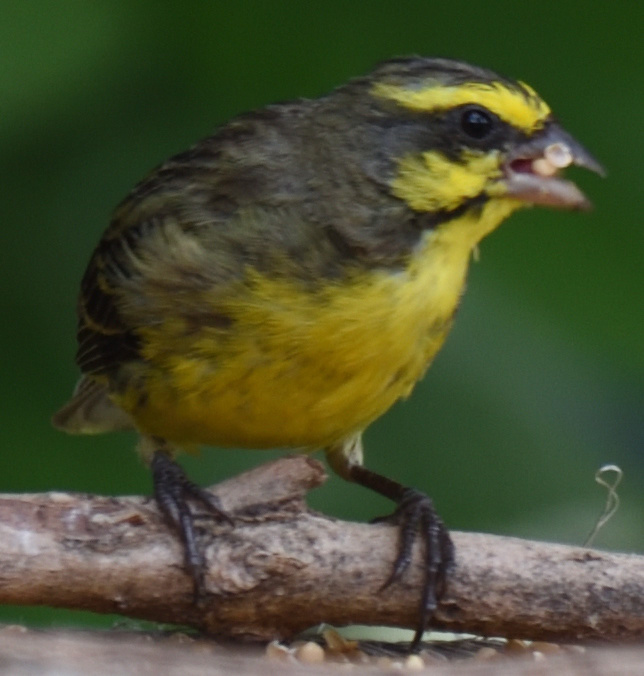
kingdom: Animalia
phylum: Chordata
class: Aves
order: Passeriformes
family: Fringillidae
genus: Crithagra
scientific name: Crithagra mozambica
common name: Yellow-fronted canary
